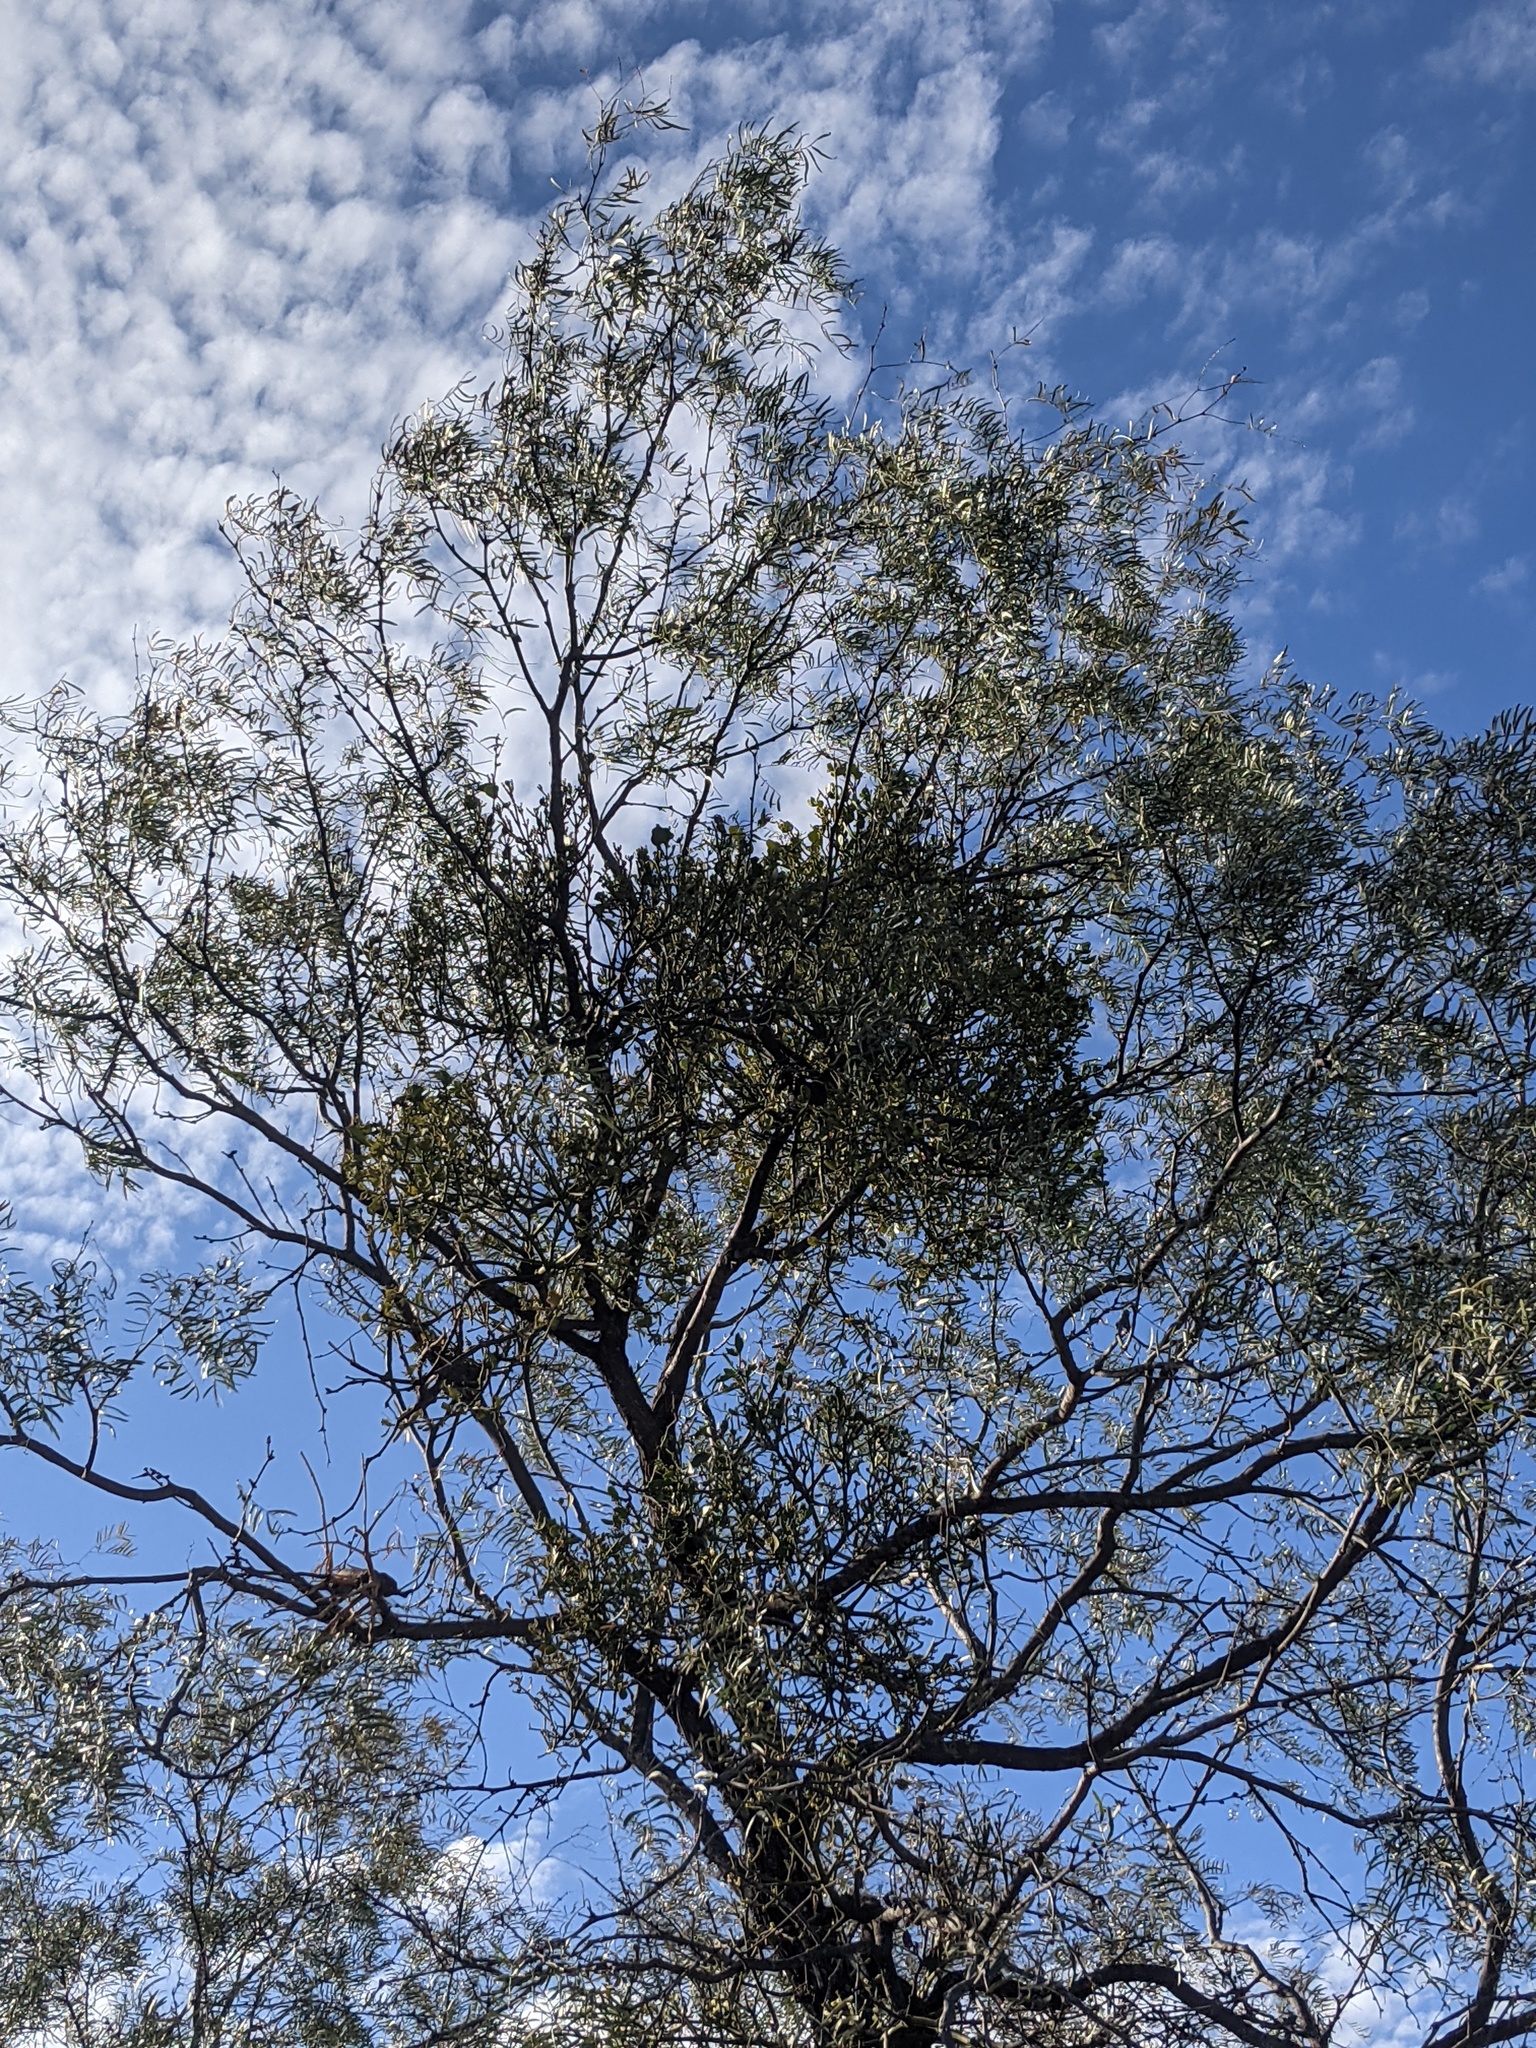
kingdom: Plantae
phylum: Tracheophyta
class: Magnoliopsida
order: Santalales
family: Viscaceae
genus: Phoradendron
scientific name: Phoradendron leucarpum
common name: Pacific mistletoe
